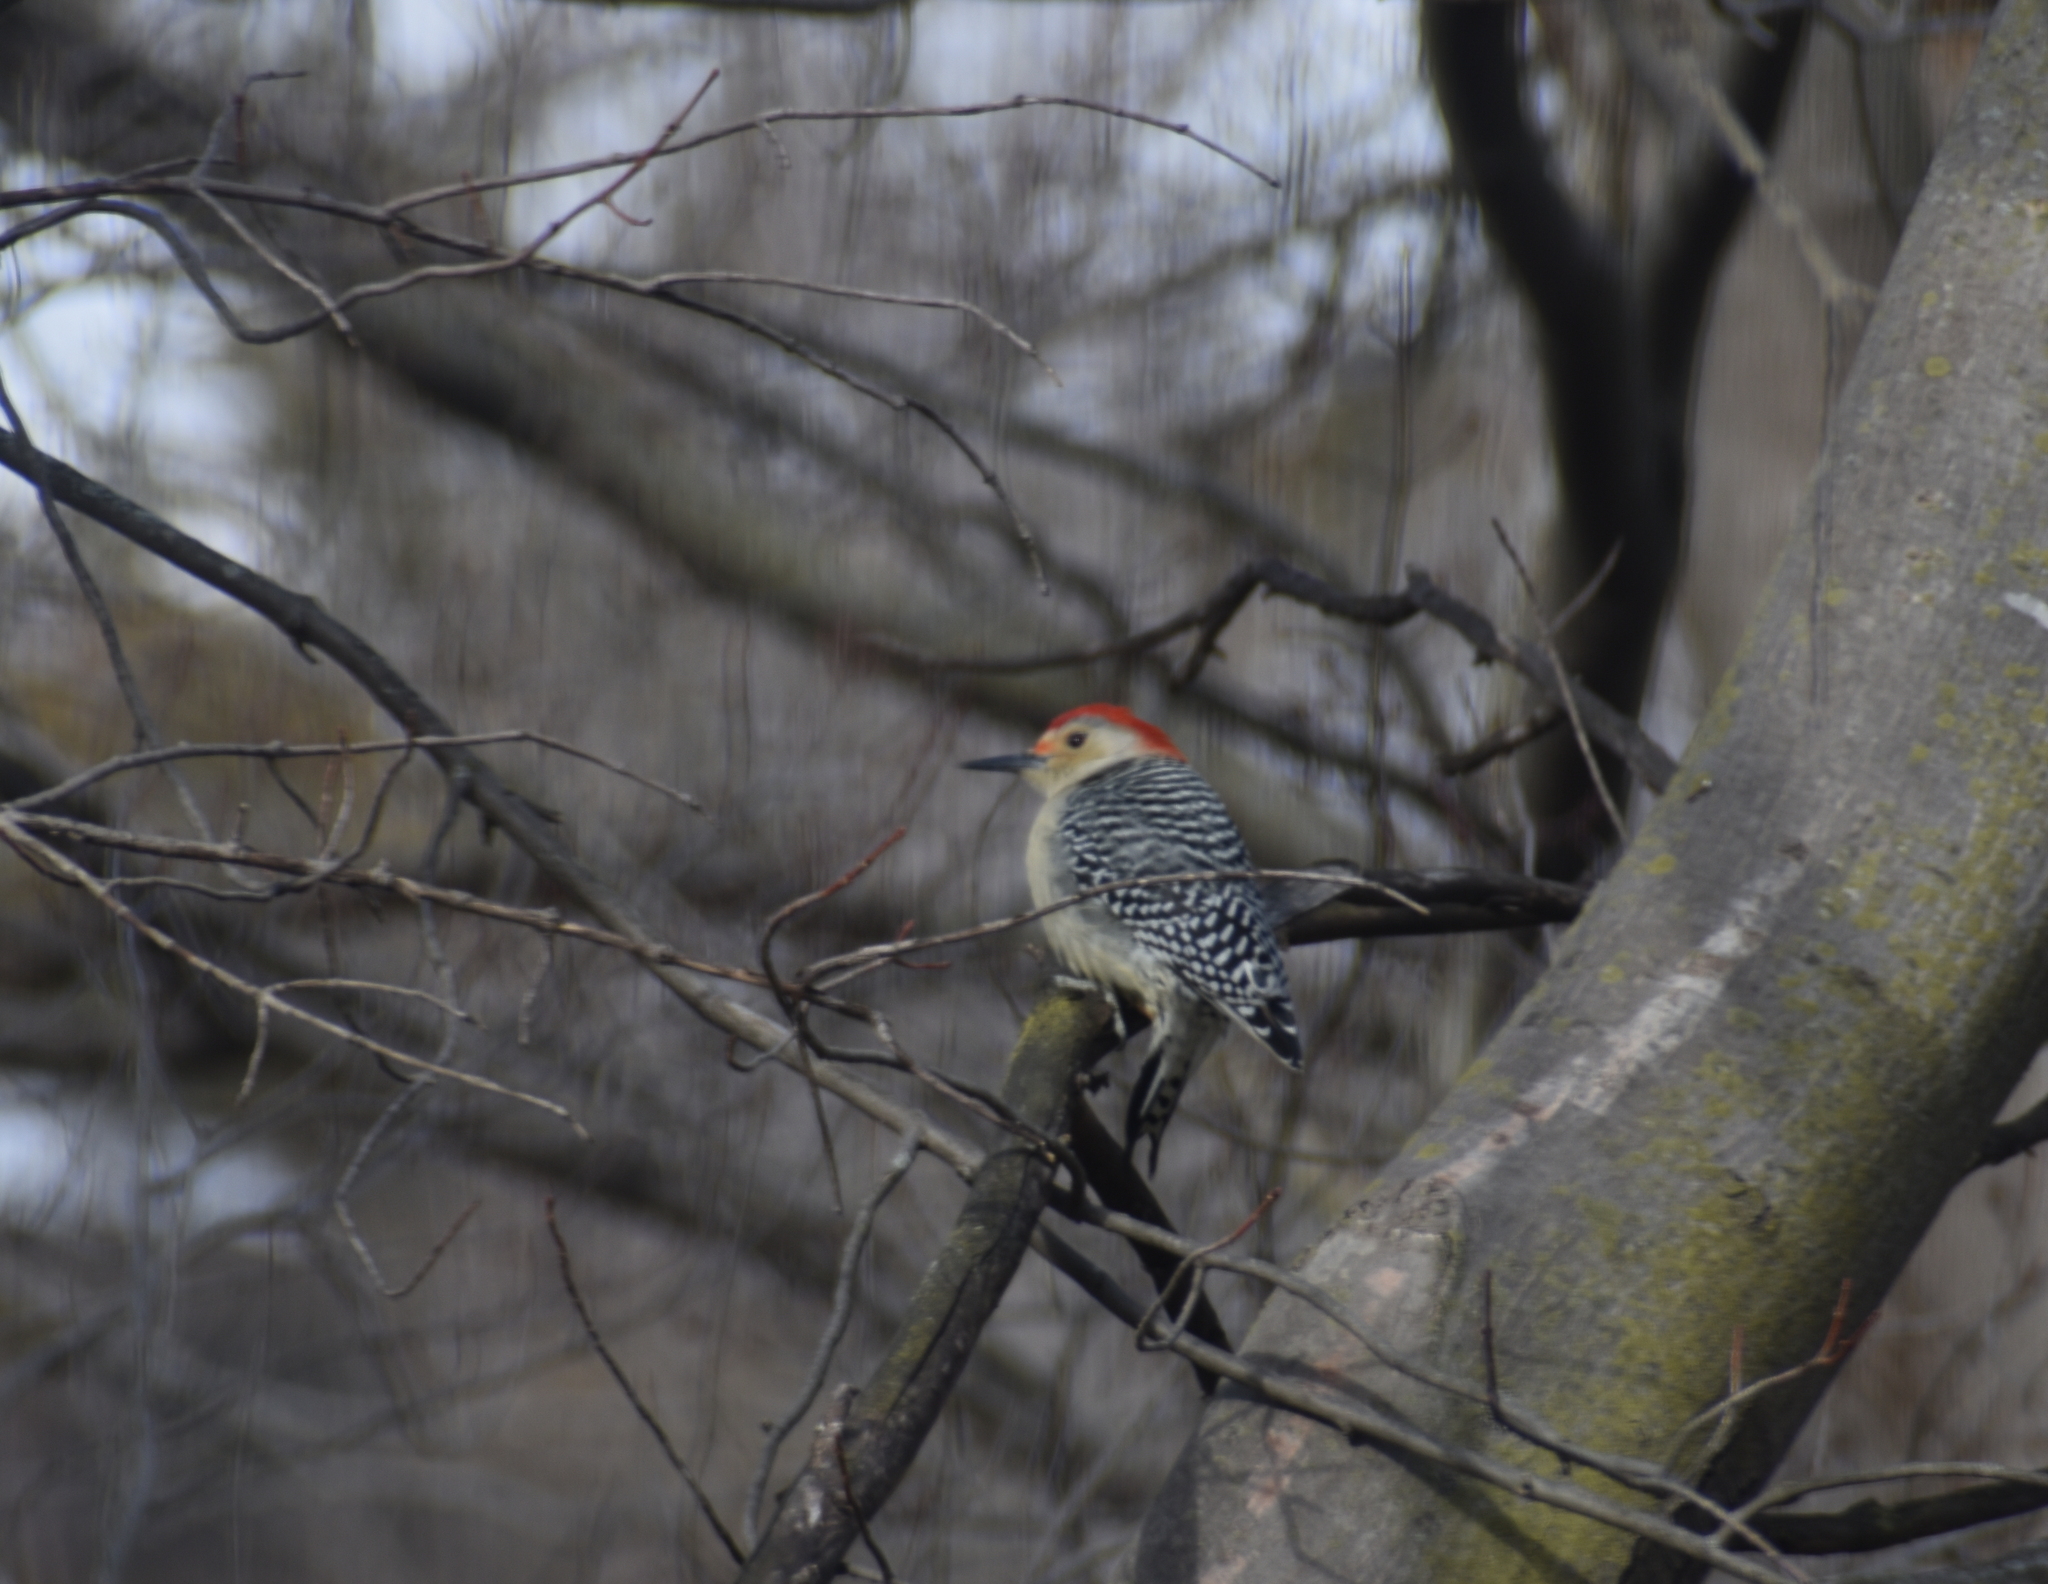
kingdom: Animalia
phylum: Chordata
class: Aves
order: Piciformes
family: Picidae
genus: Melanerpes
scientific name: Melanerpes carolinus
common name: Red-bellied woodpecker
